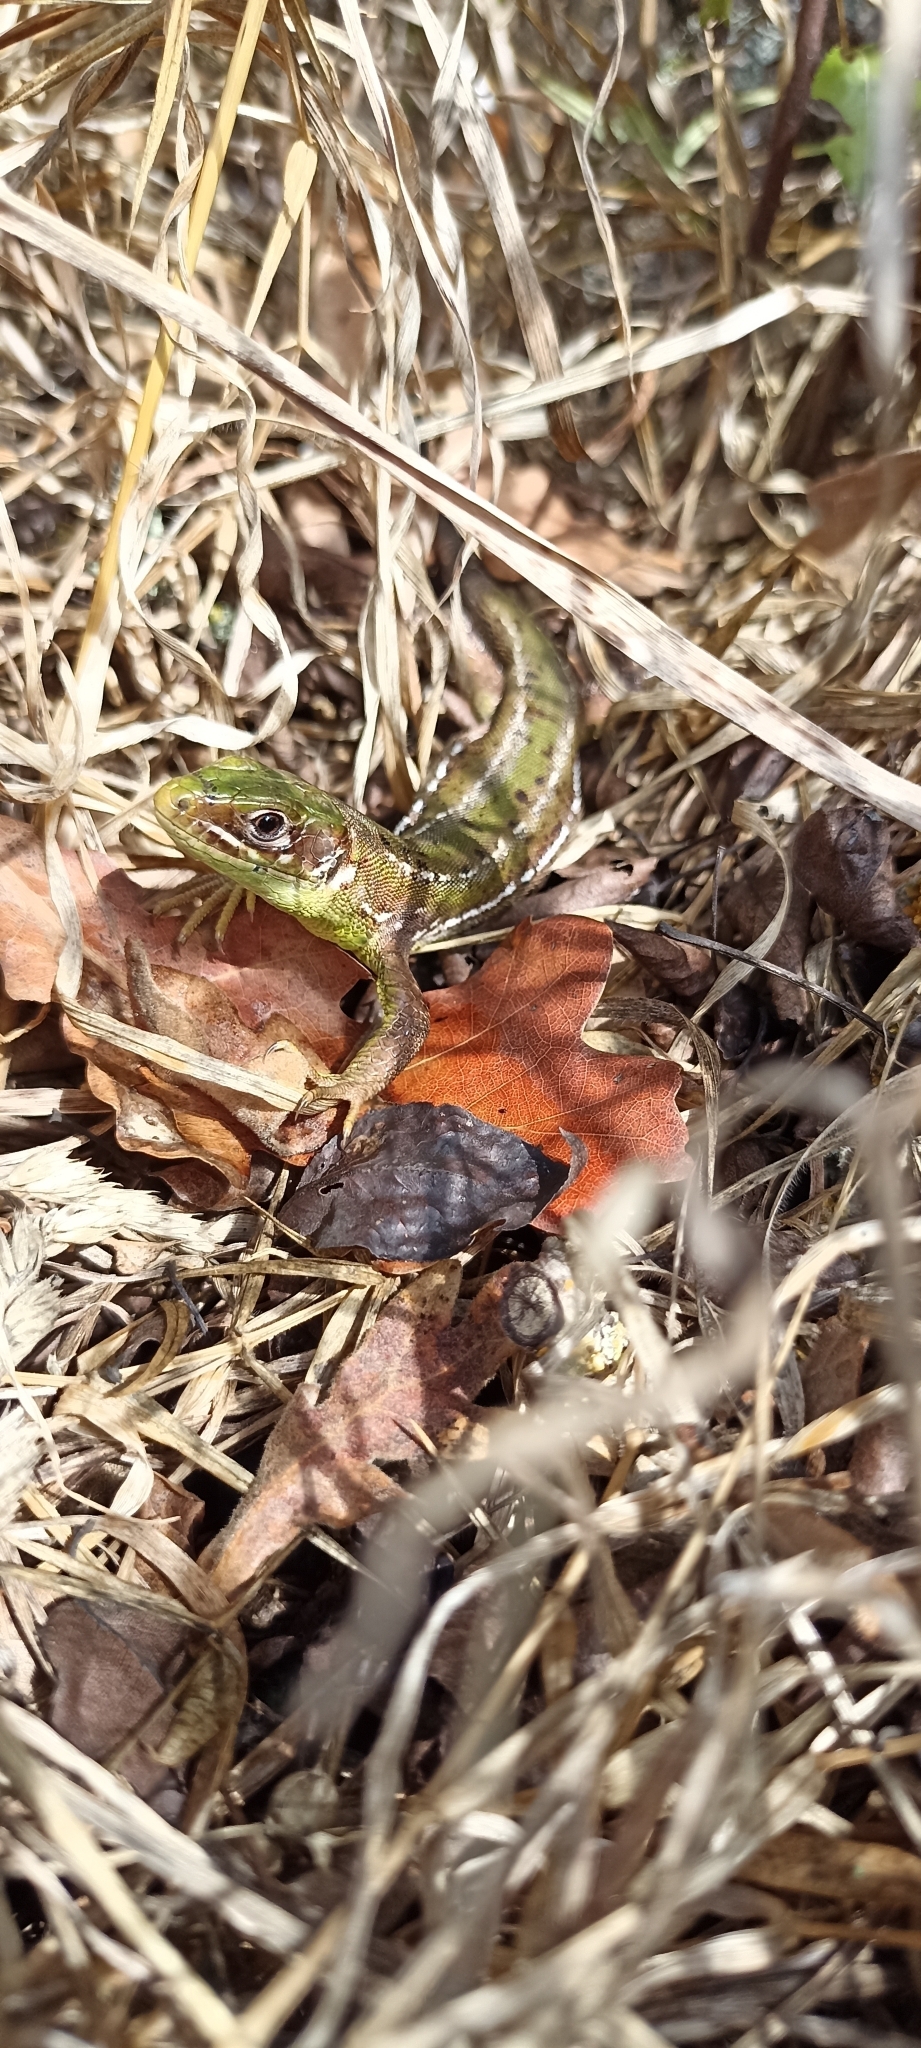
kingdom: Animalia
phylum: Chordata
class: Squamata
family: Lacertidae
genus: Lacerta
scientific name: Lacerta bilineata
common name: Western green lizard
